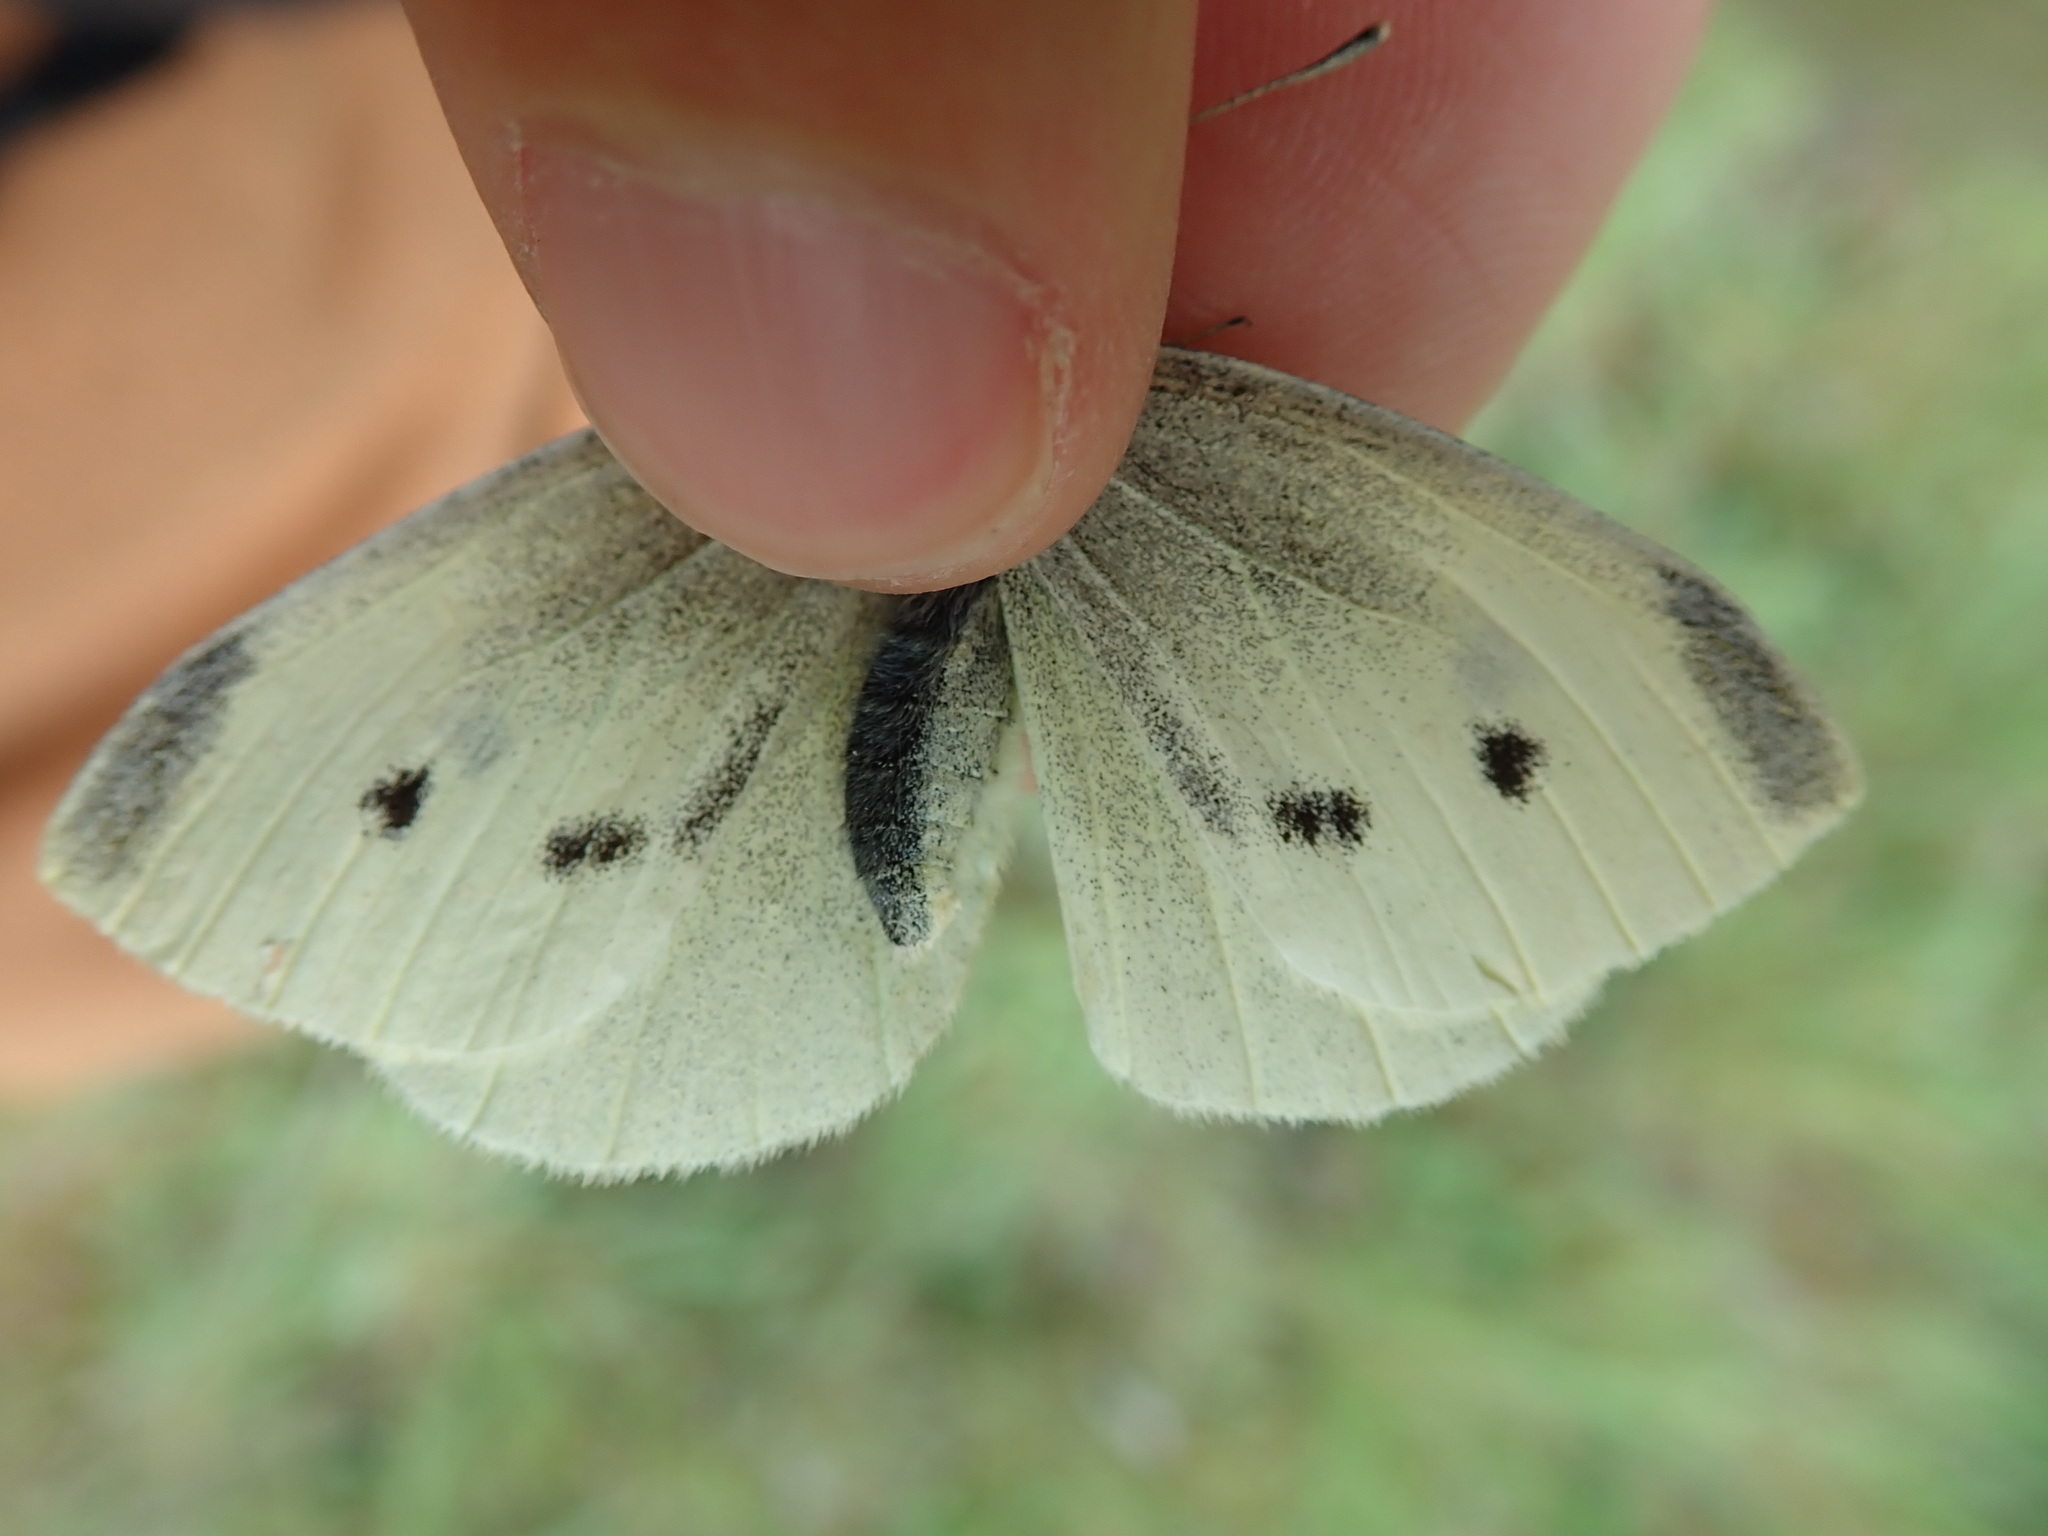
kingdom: Animalia
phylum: Arthropoda
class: Insecta
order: Lepidoptera
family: Pieridae
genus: Pieris
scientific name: Pieris rapae
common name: Small white
